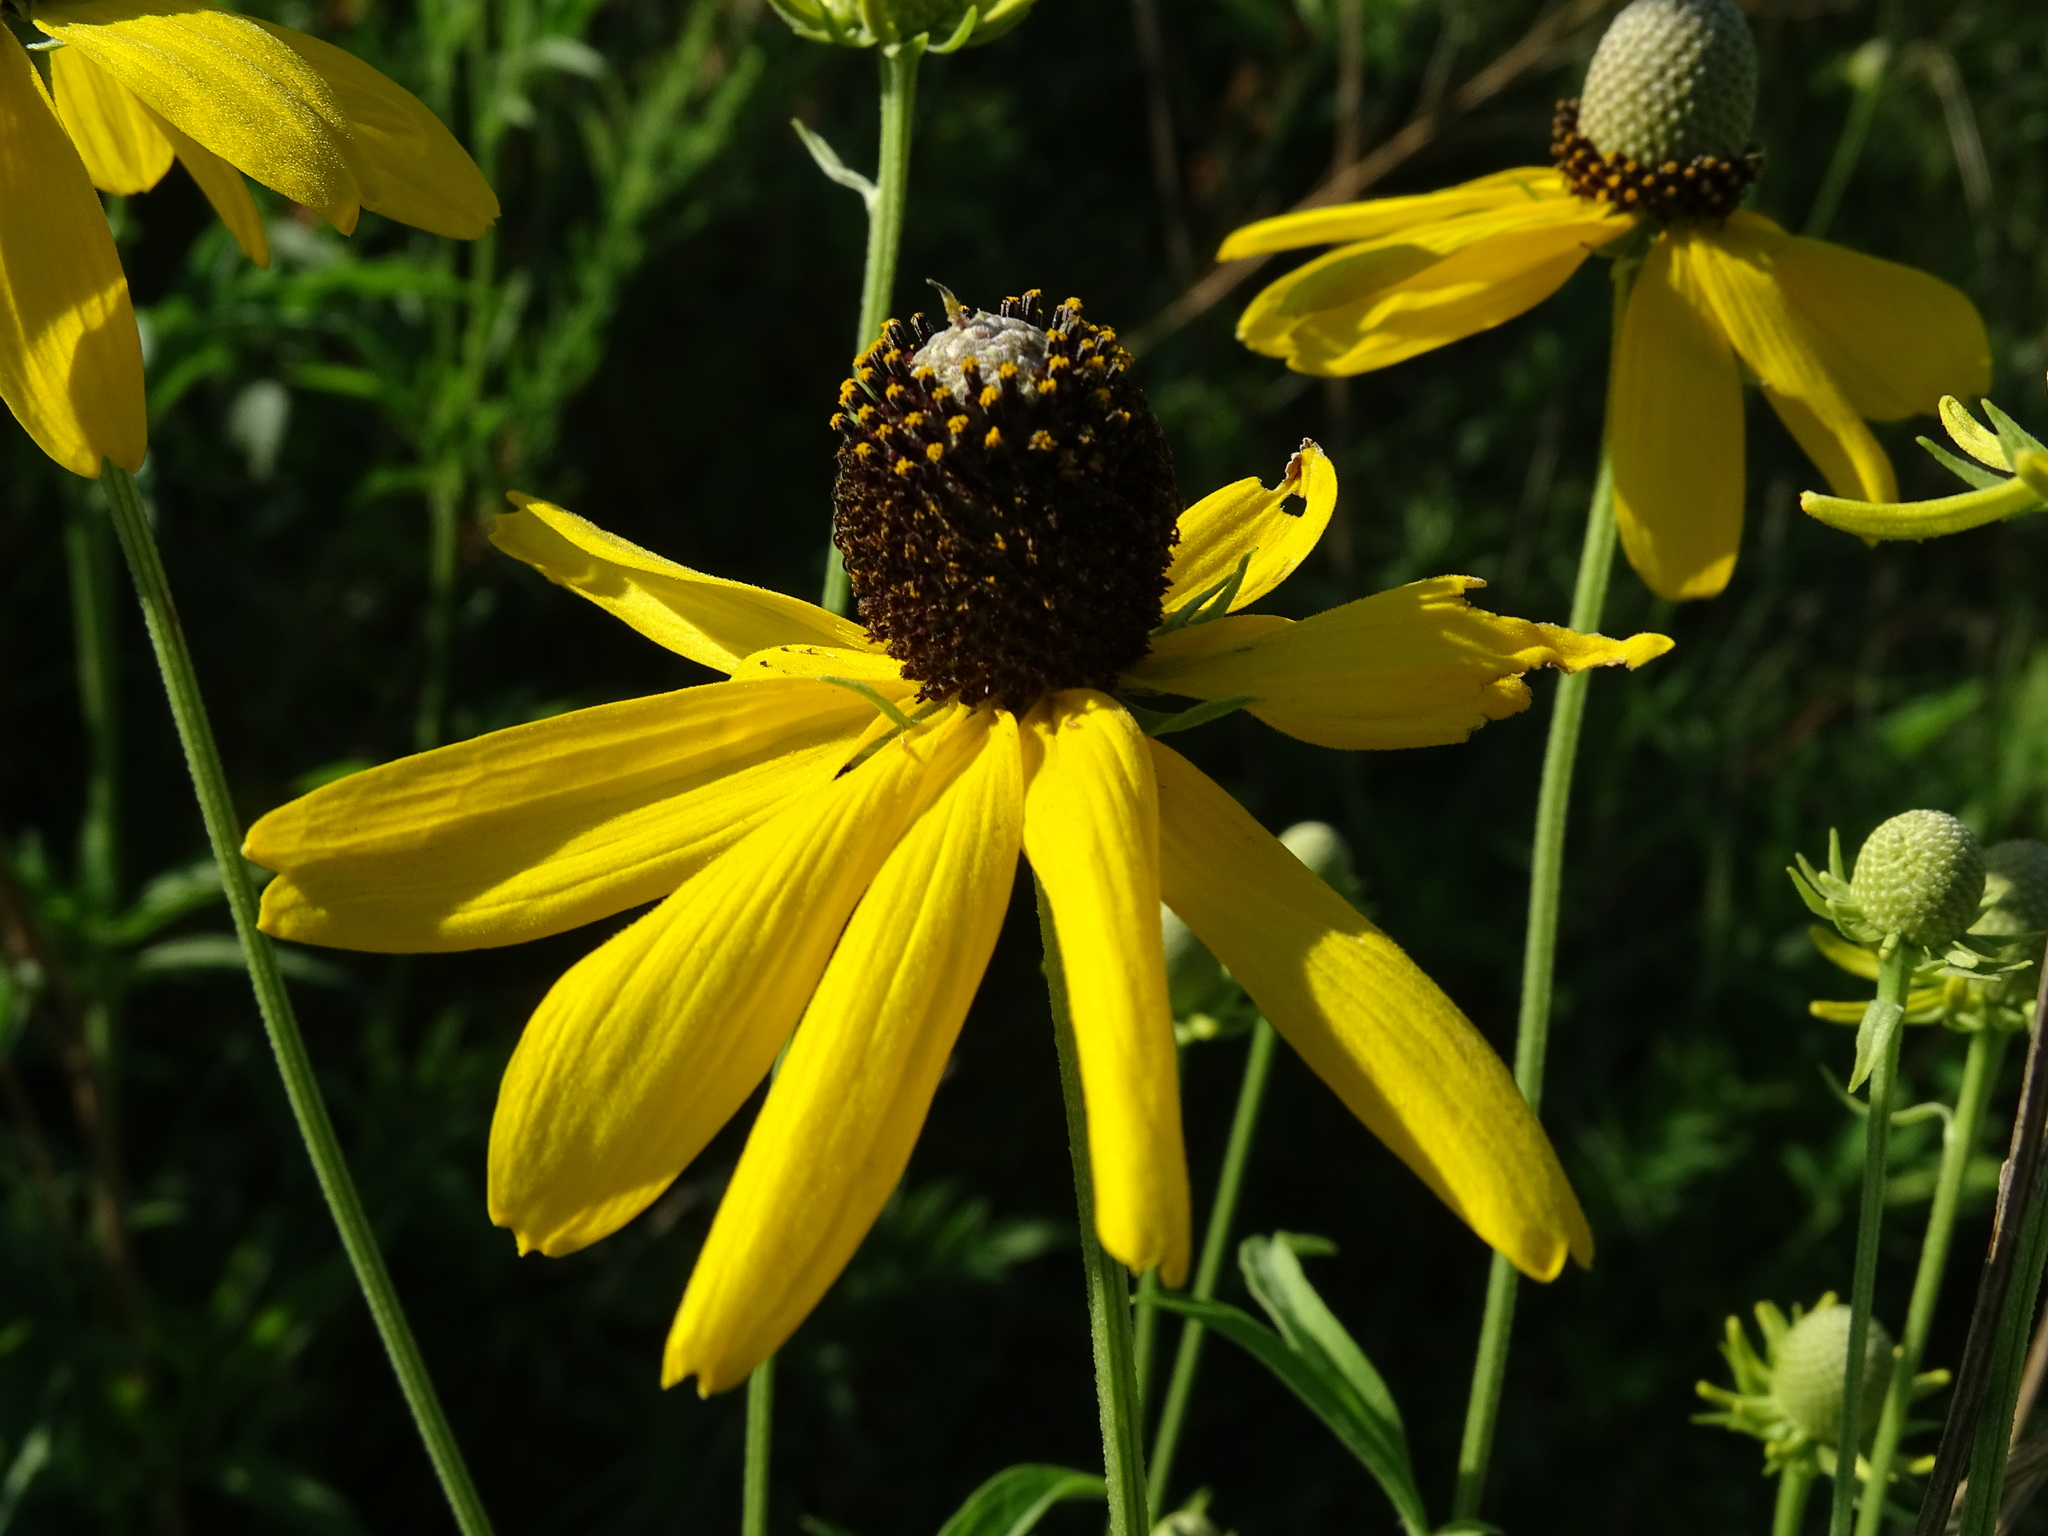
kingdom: Plantae
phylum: Tracheophyta
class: Magnoliopsida
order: Asterales
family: Asteraceae
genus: Ratibida
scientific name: Ratibida pinnata
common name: Drooping prairie-coneflower
